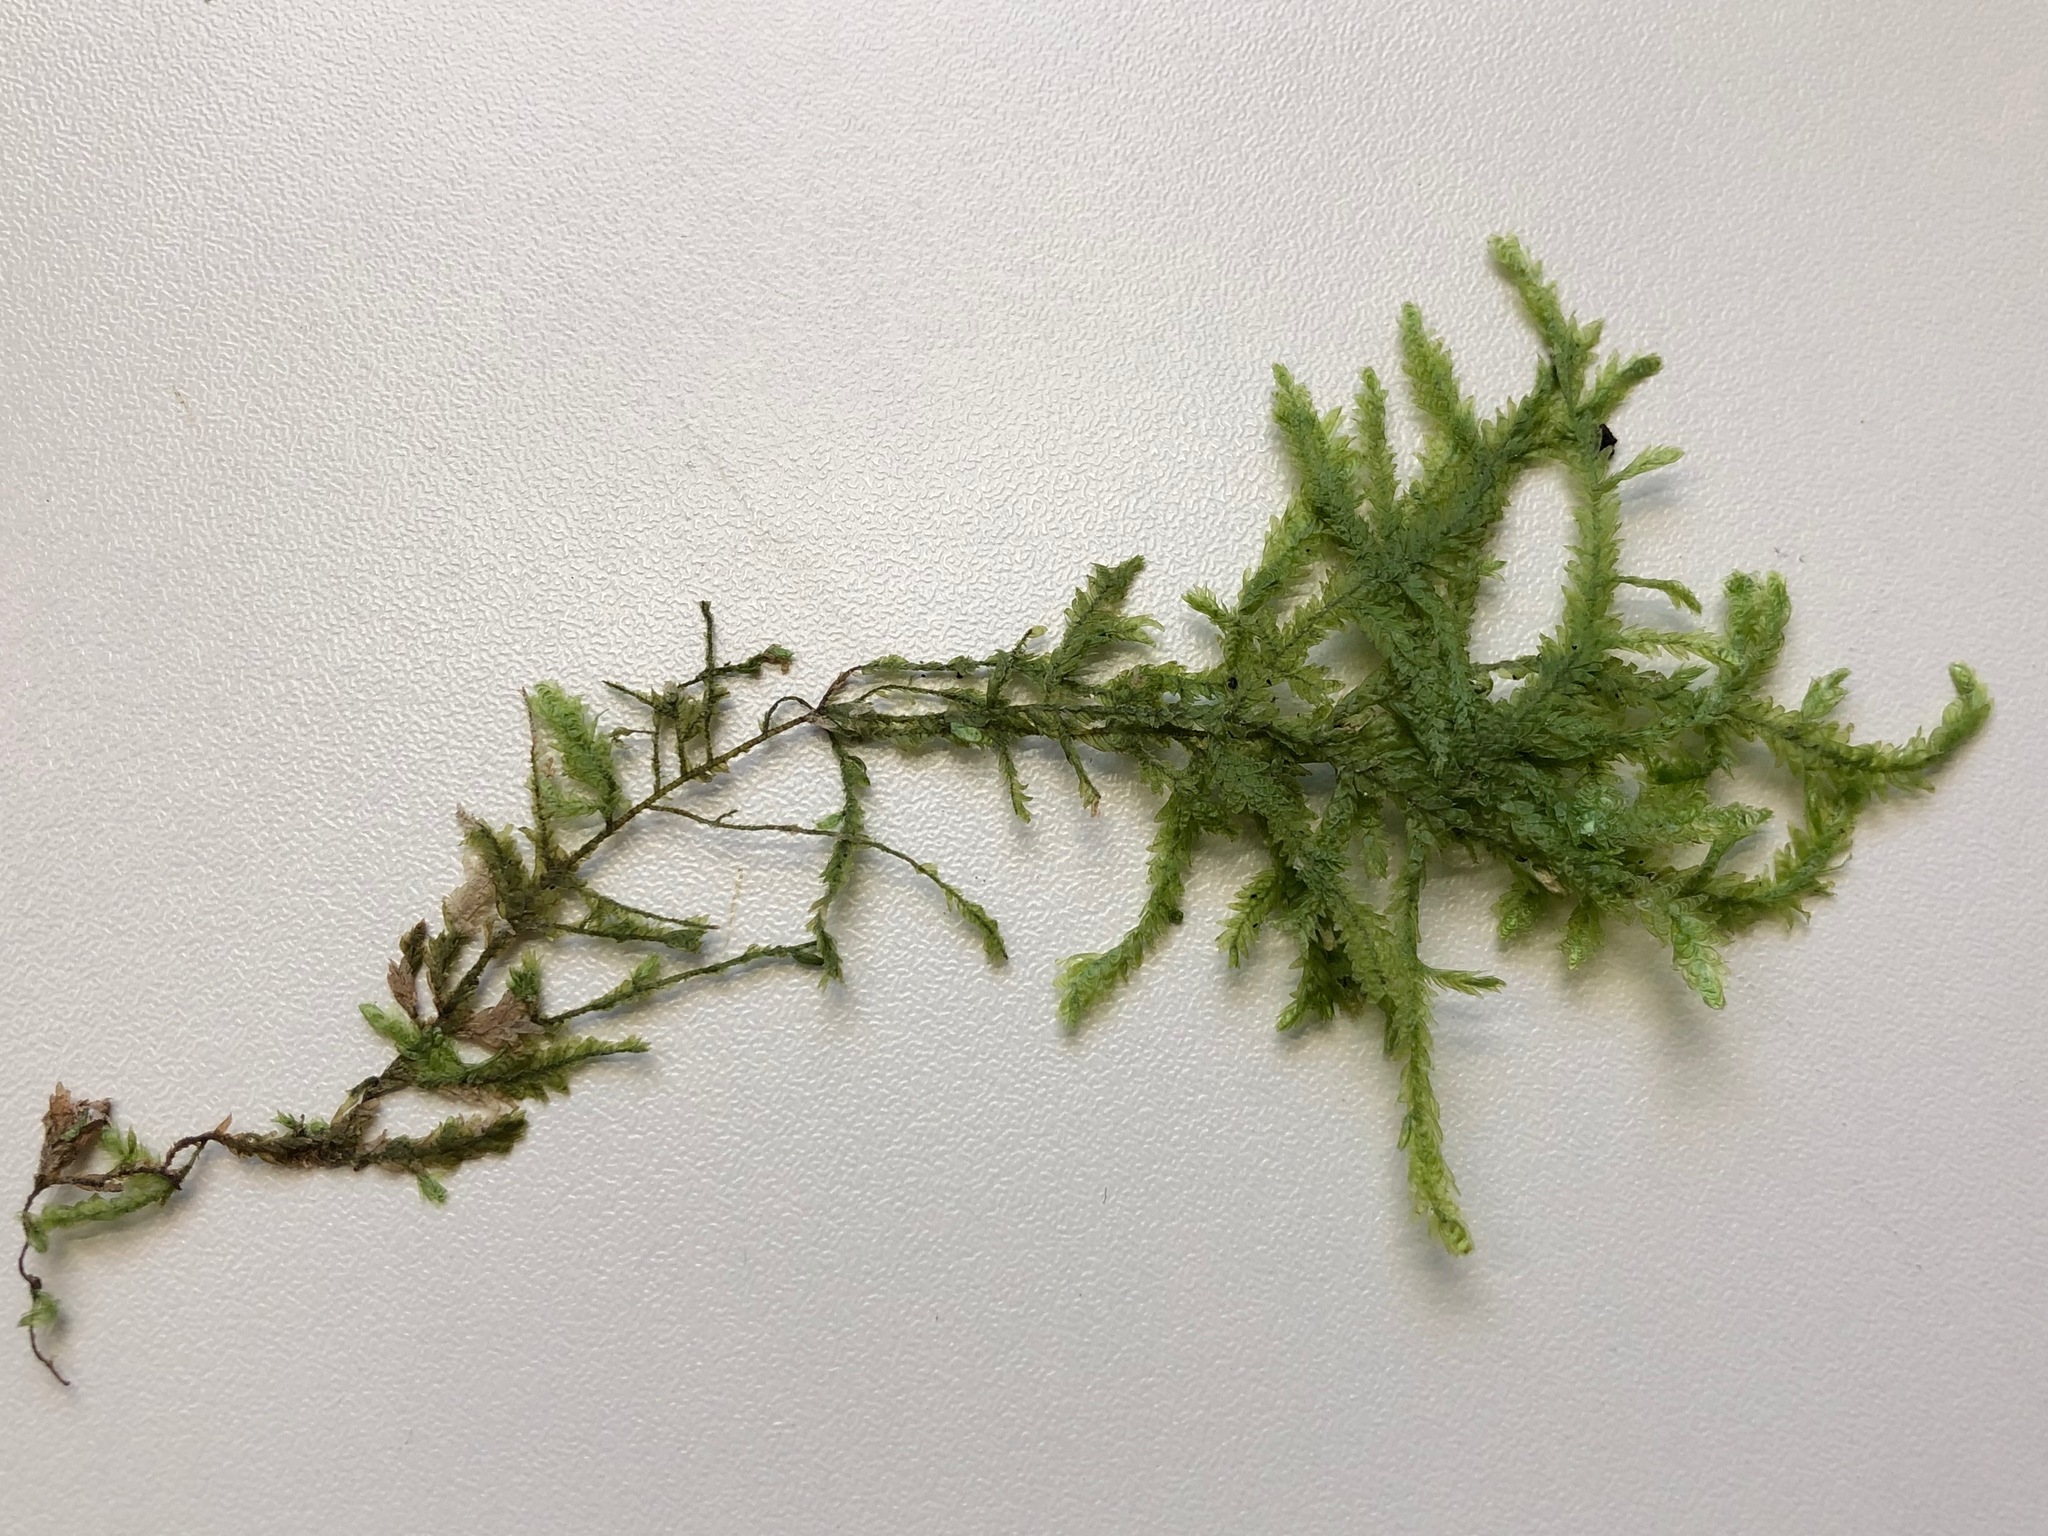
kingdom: Plantae
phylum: Bryophyta
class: Bryopsida
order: Hypnales
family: Neckeraceae
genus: Alleniella
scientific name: Alleniella complanata
